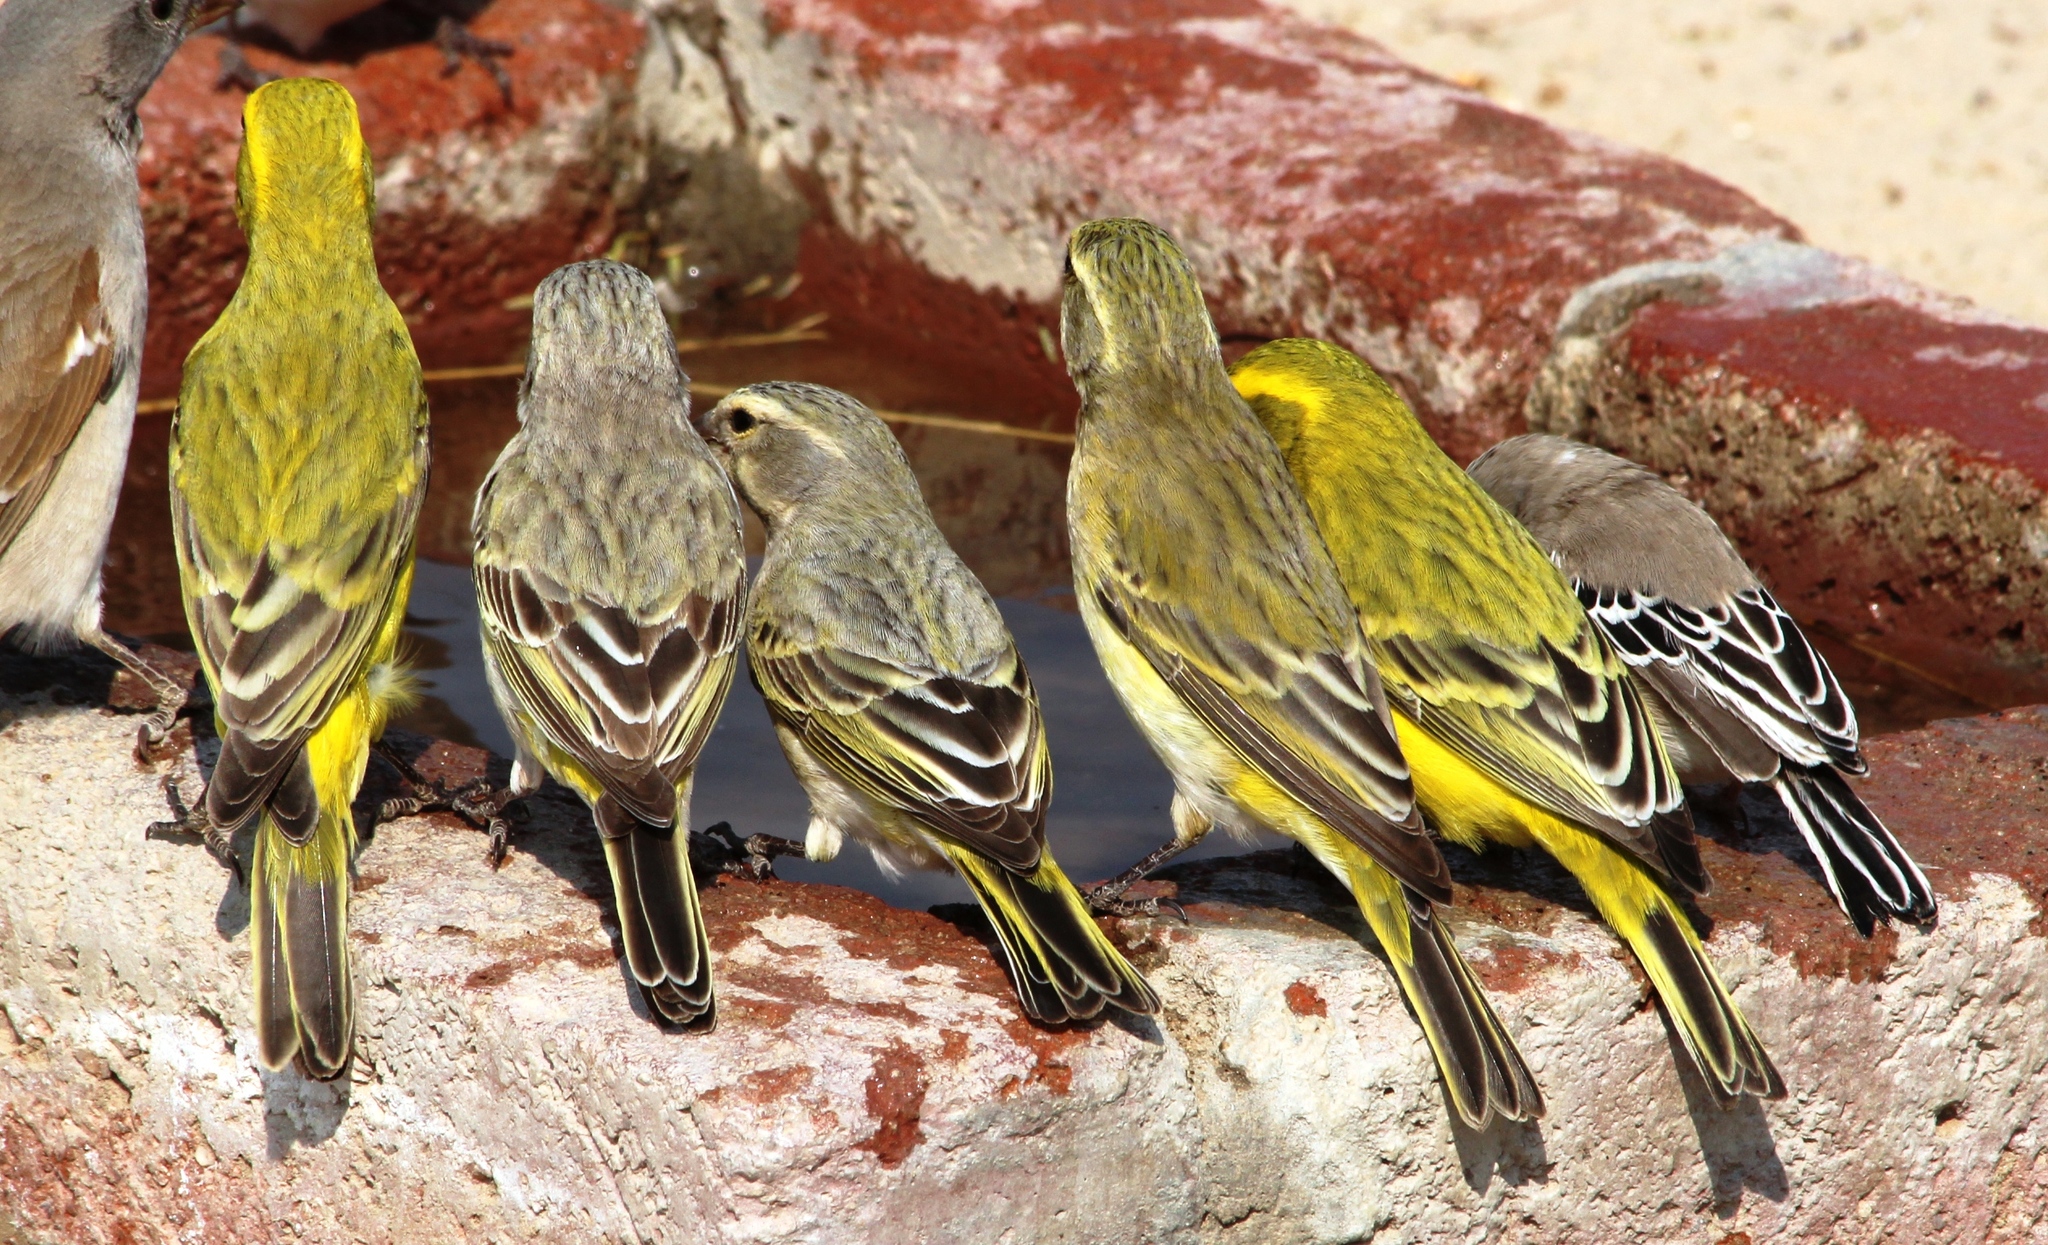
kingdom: Animalia
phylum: Chordata
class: Aves
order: Passeriformes
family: Fringillidae
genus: Crithagra
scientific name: Crithagra flaviventris
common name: Yellow canary
